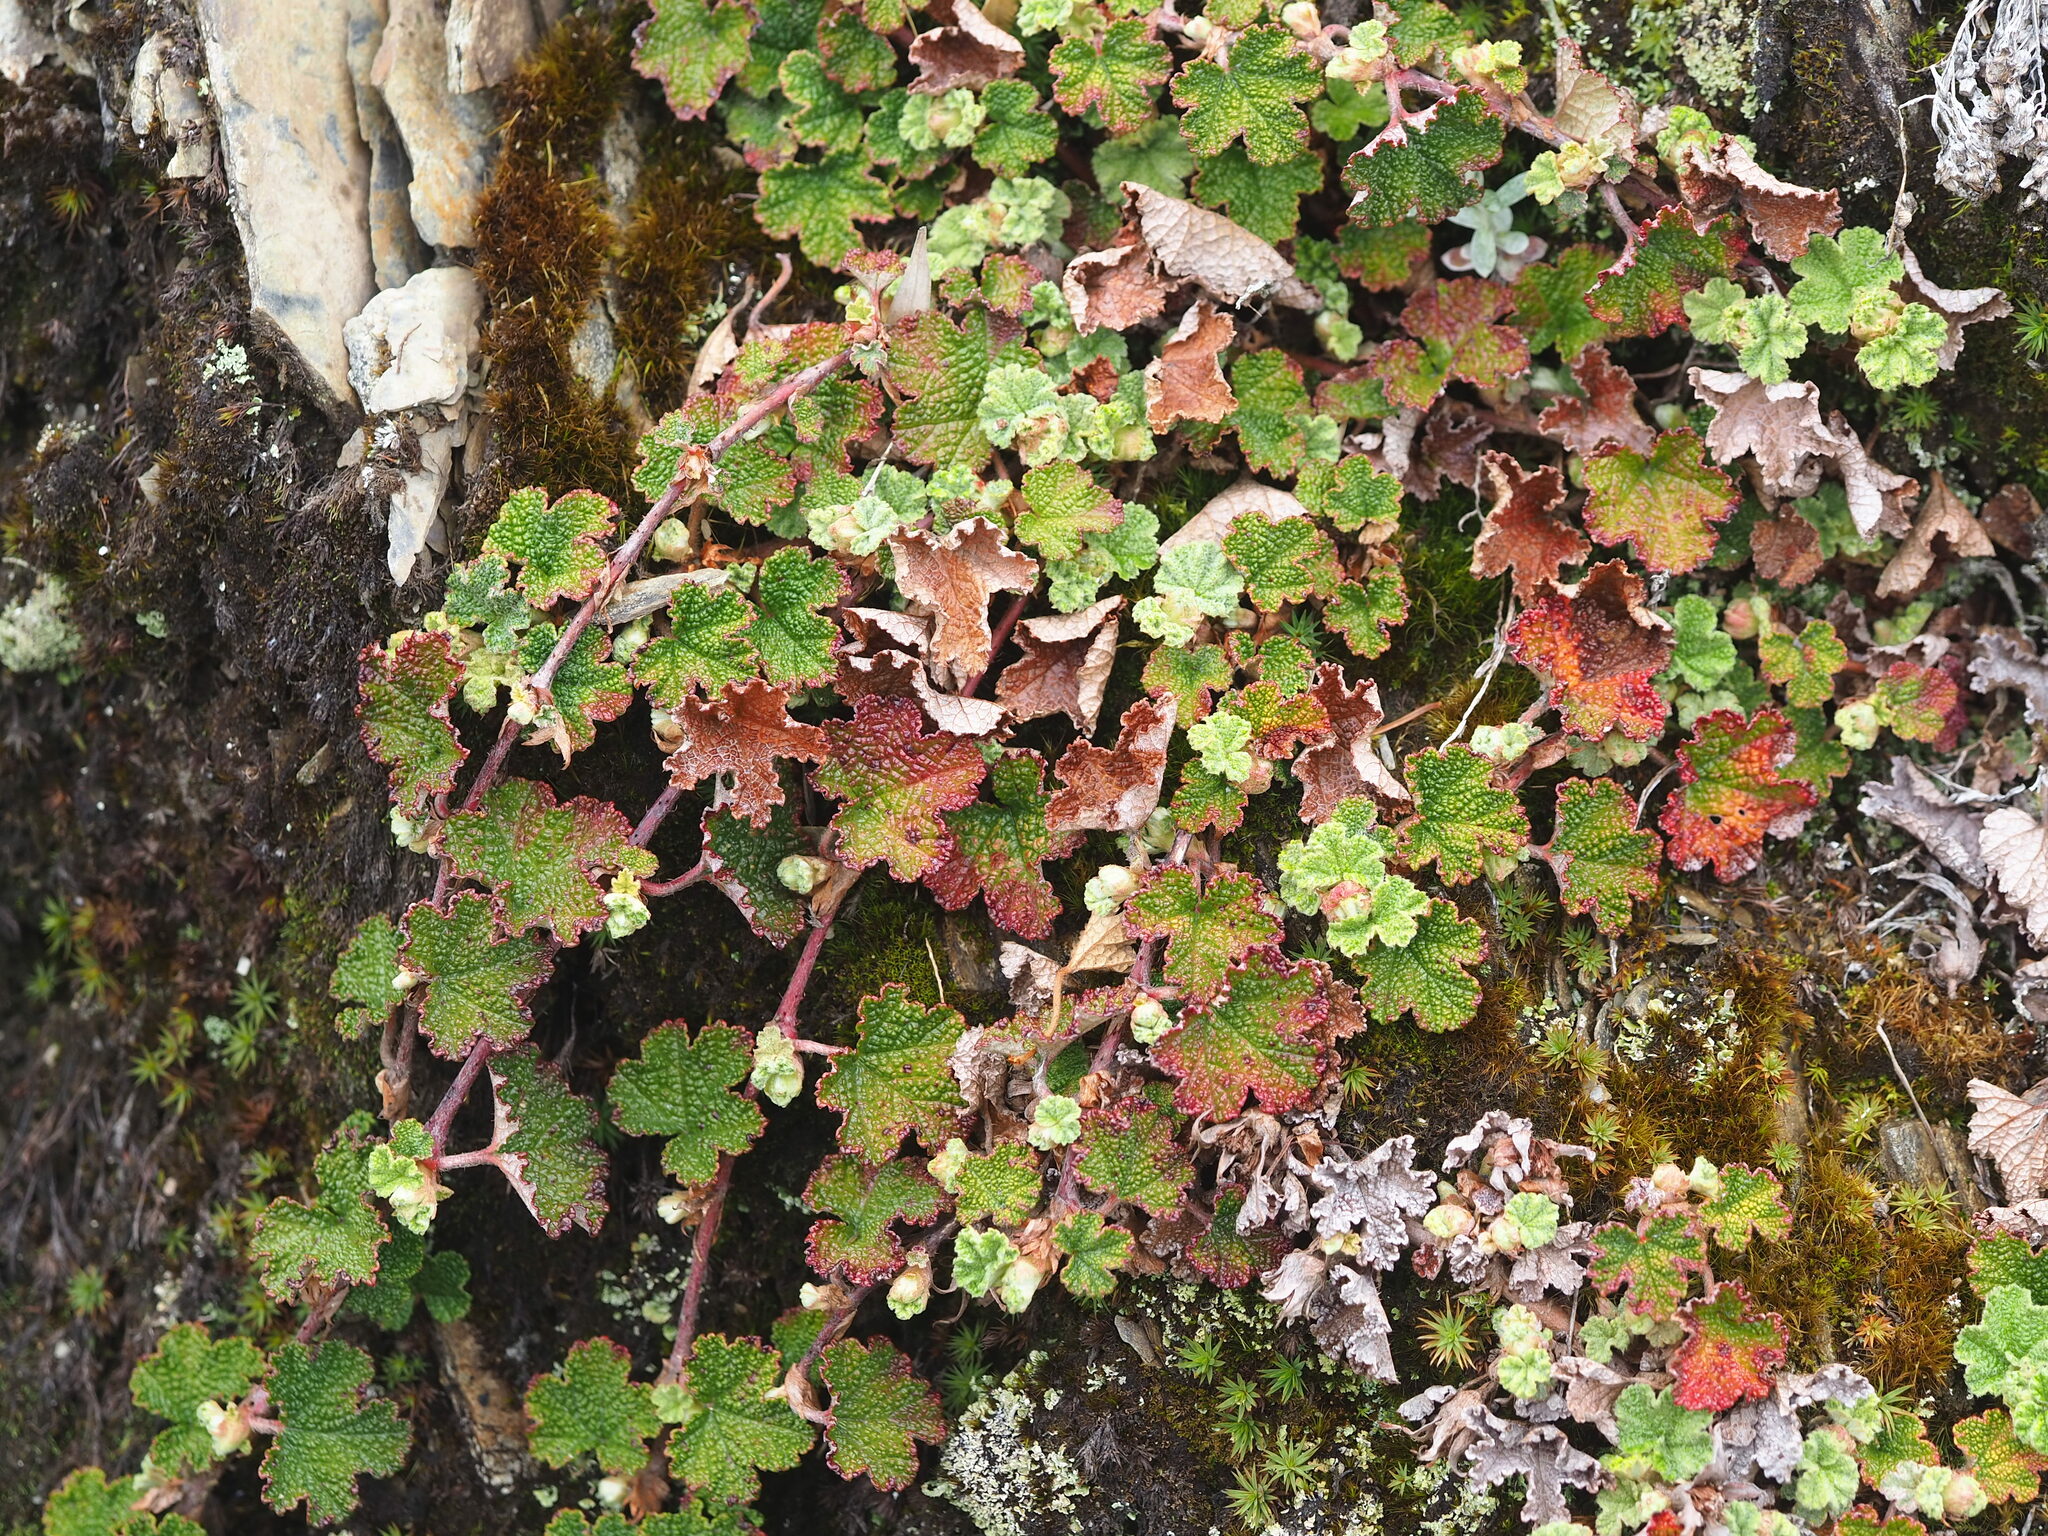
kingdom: Plantae
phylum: Tracheophyta
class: Magnoliopsida
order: Rosales
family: Rosaceae
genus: Rubus
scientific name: Rubus rolfei
